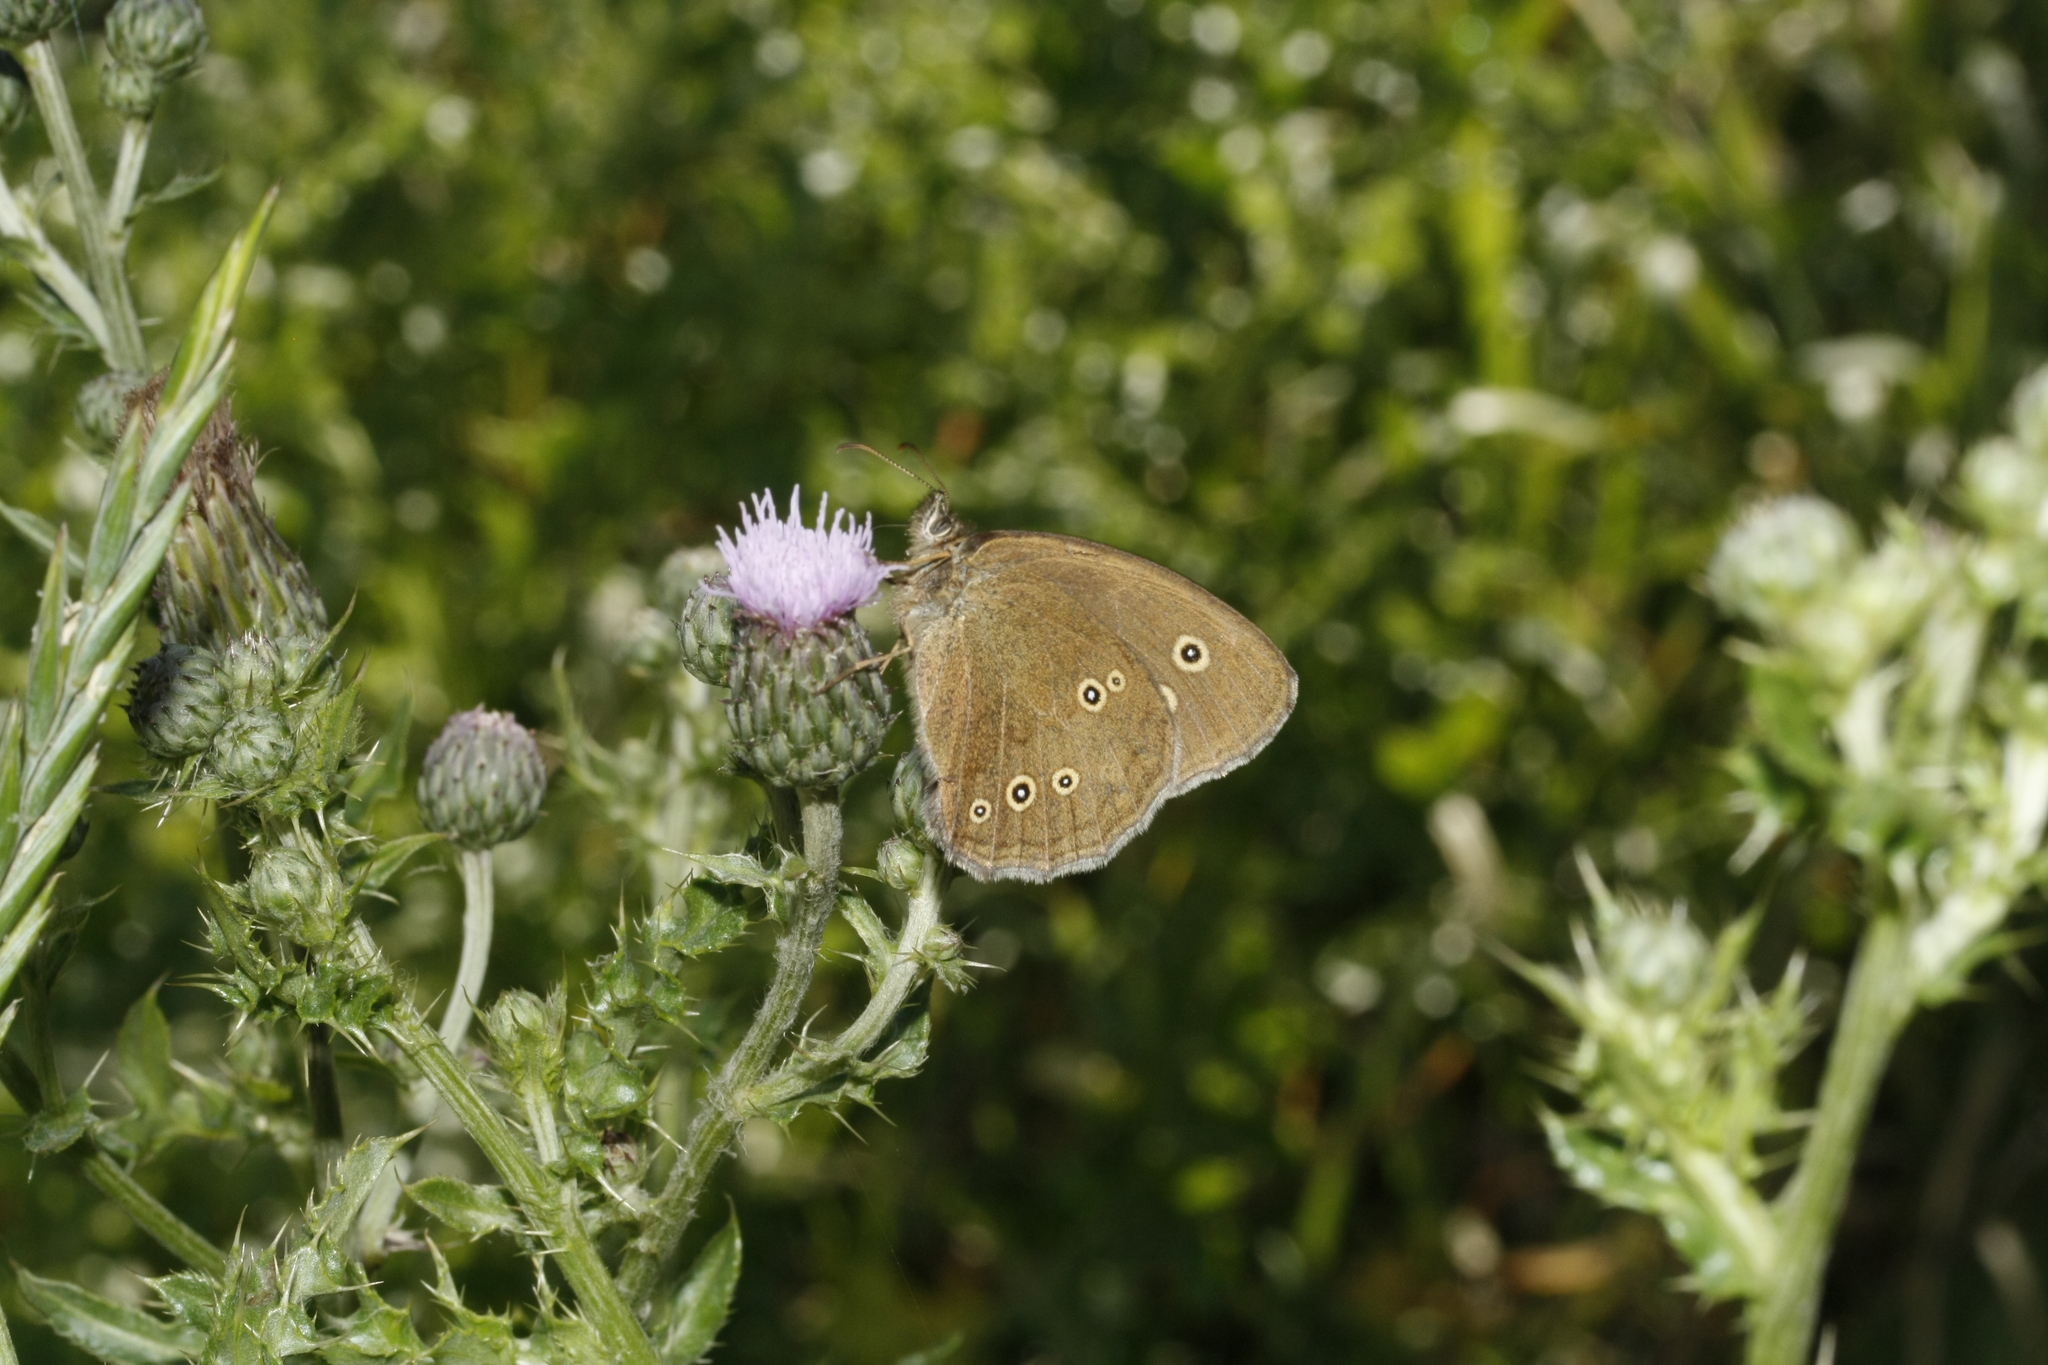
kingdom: Animalia
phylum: Arthropoda
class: Insecta
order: Lepidoptera
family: Nymphalidae
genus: Aphantopus
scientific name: Aphantopus hyperantus
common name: Ringlet
